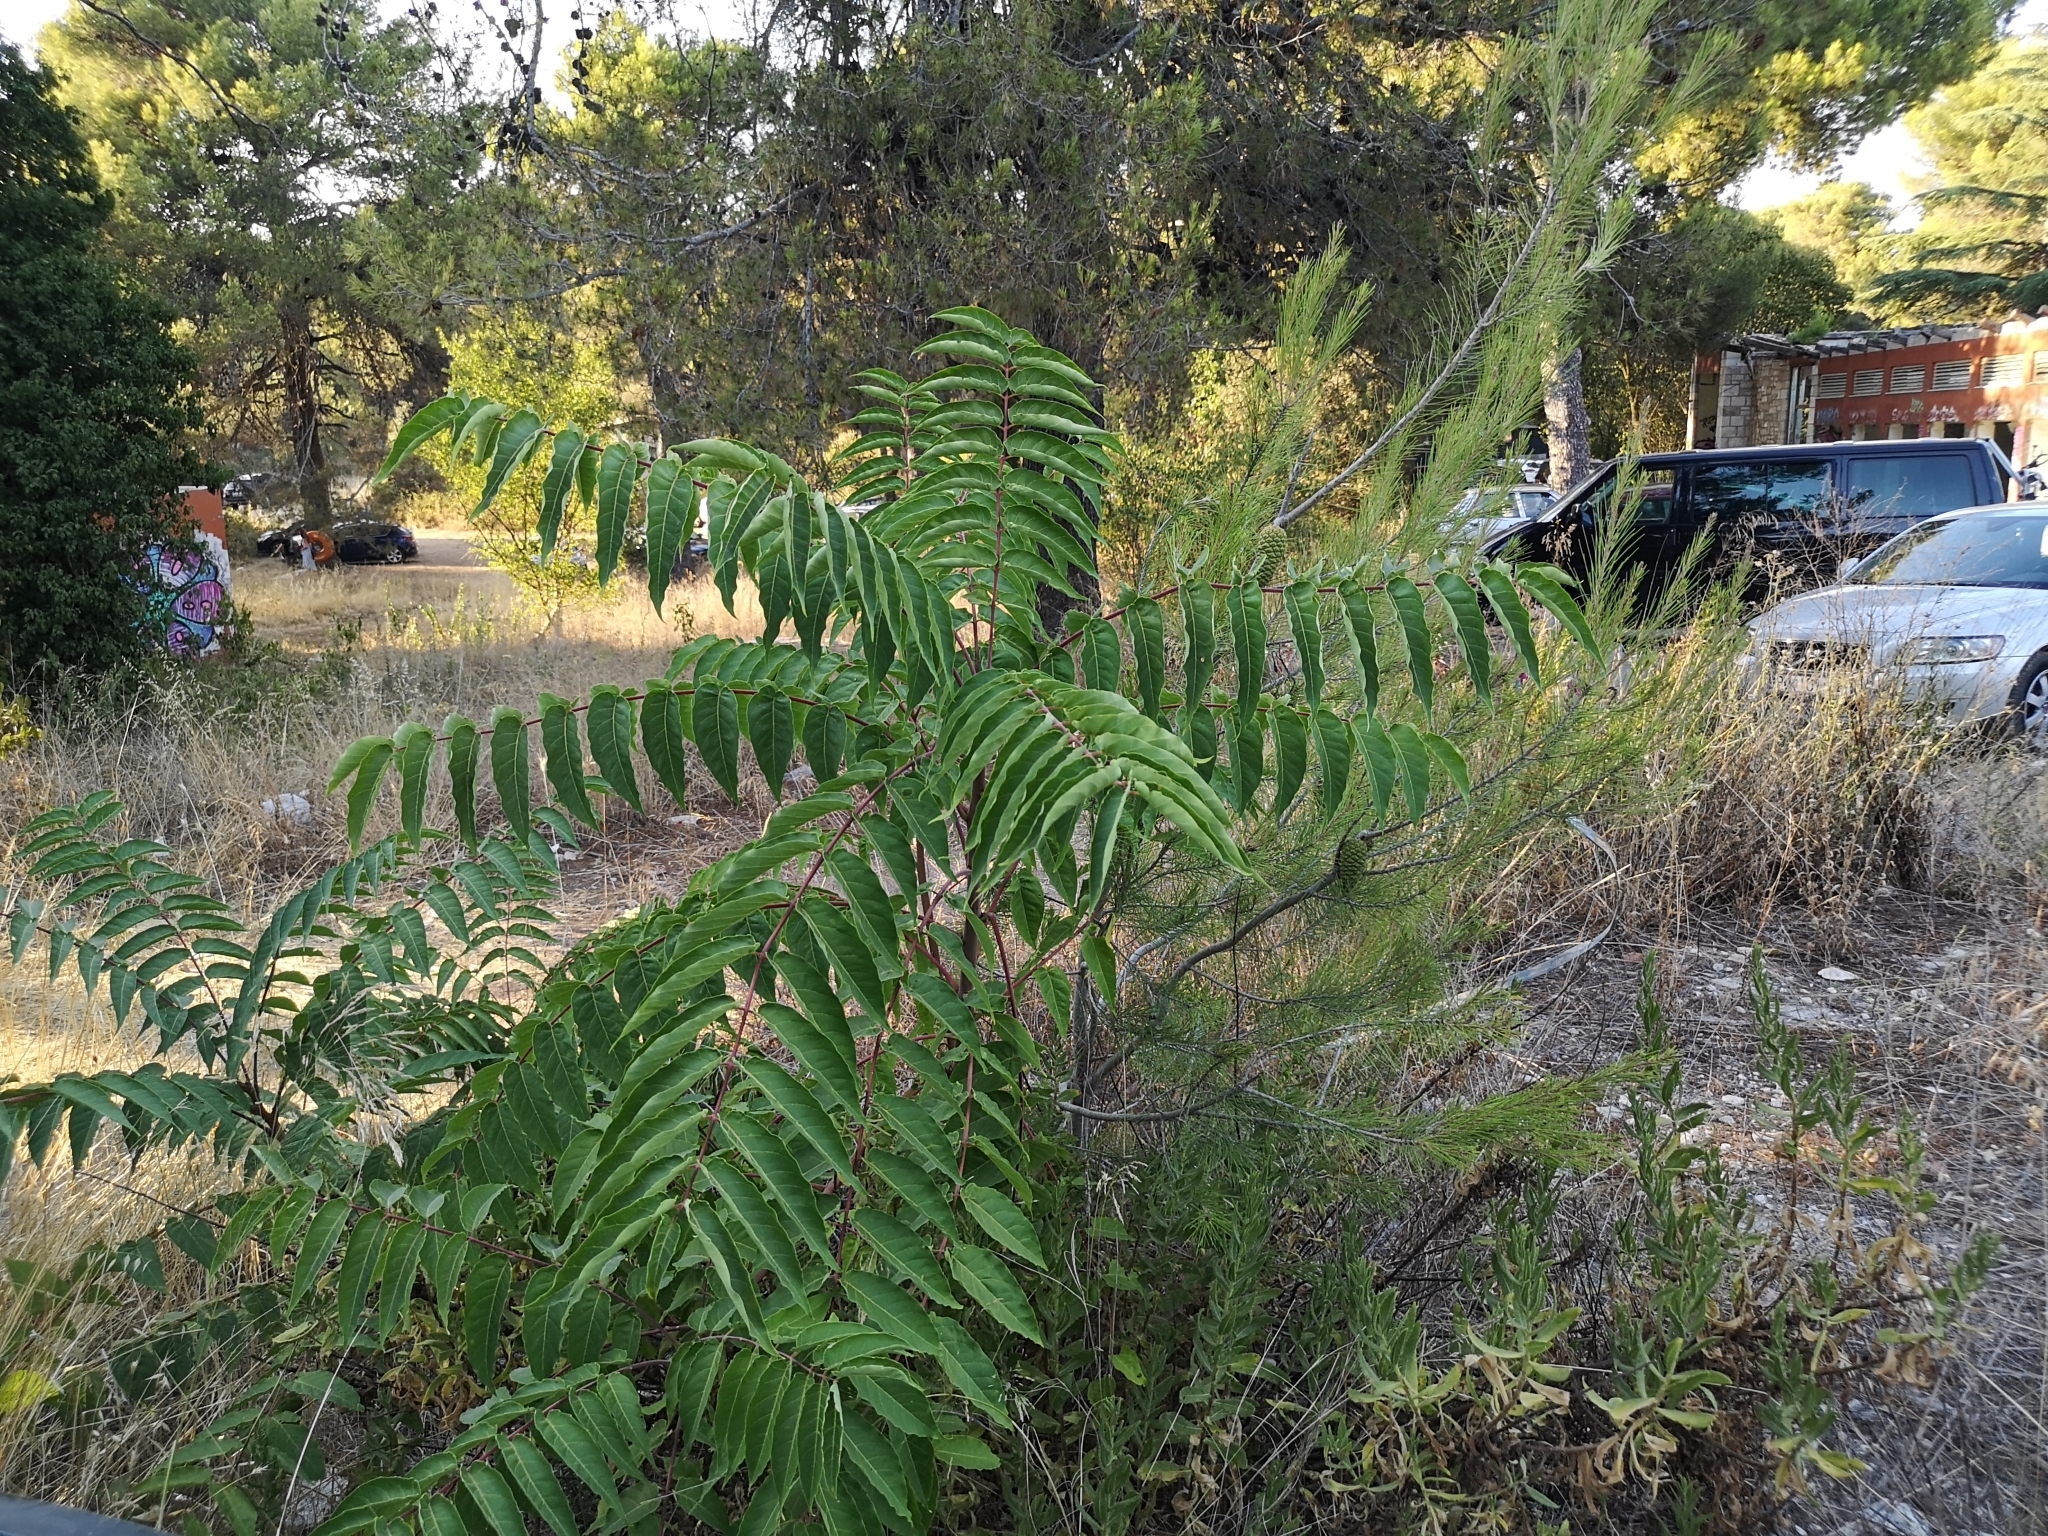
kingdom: Plantae
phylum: Tracheophyta
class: Magnoliopsida
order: Sapindales
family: Simaroubaceae
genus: Ailanthus
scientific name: Ailanthus altissima
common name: Tree-of-heaven
